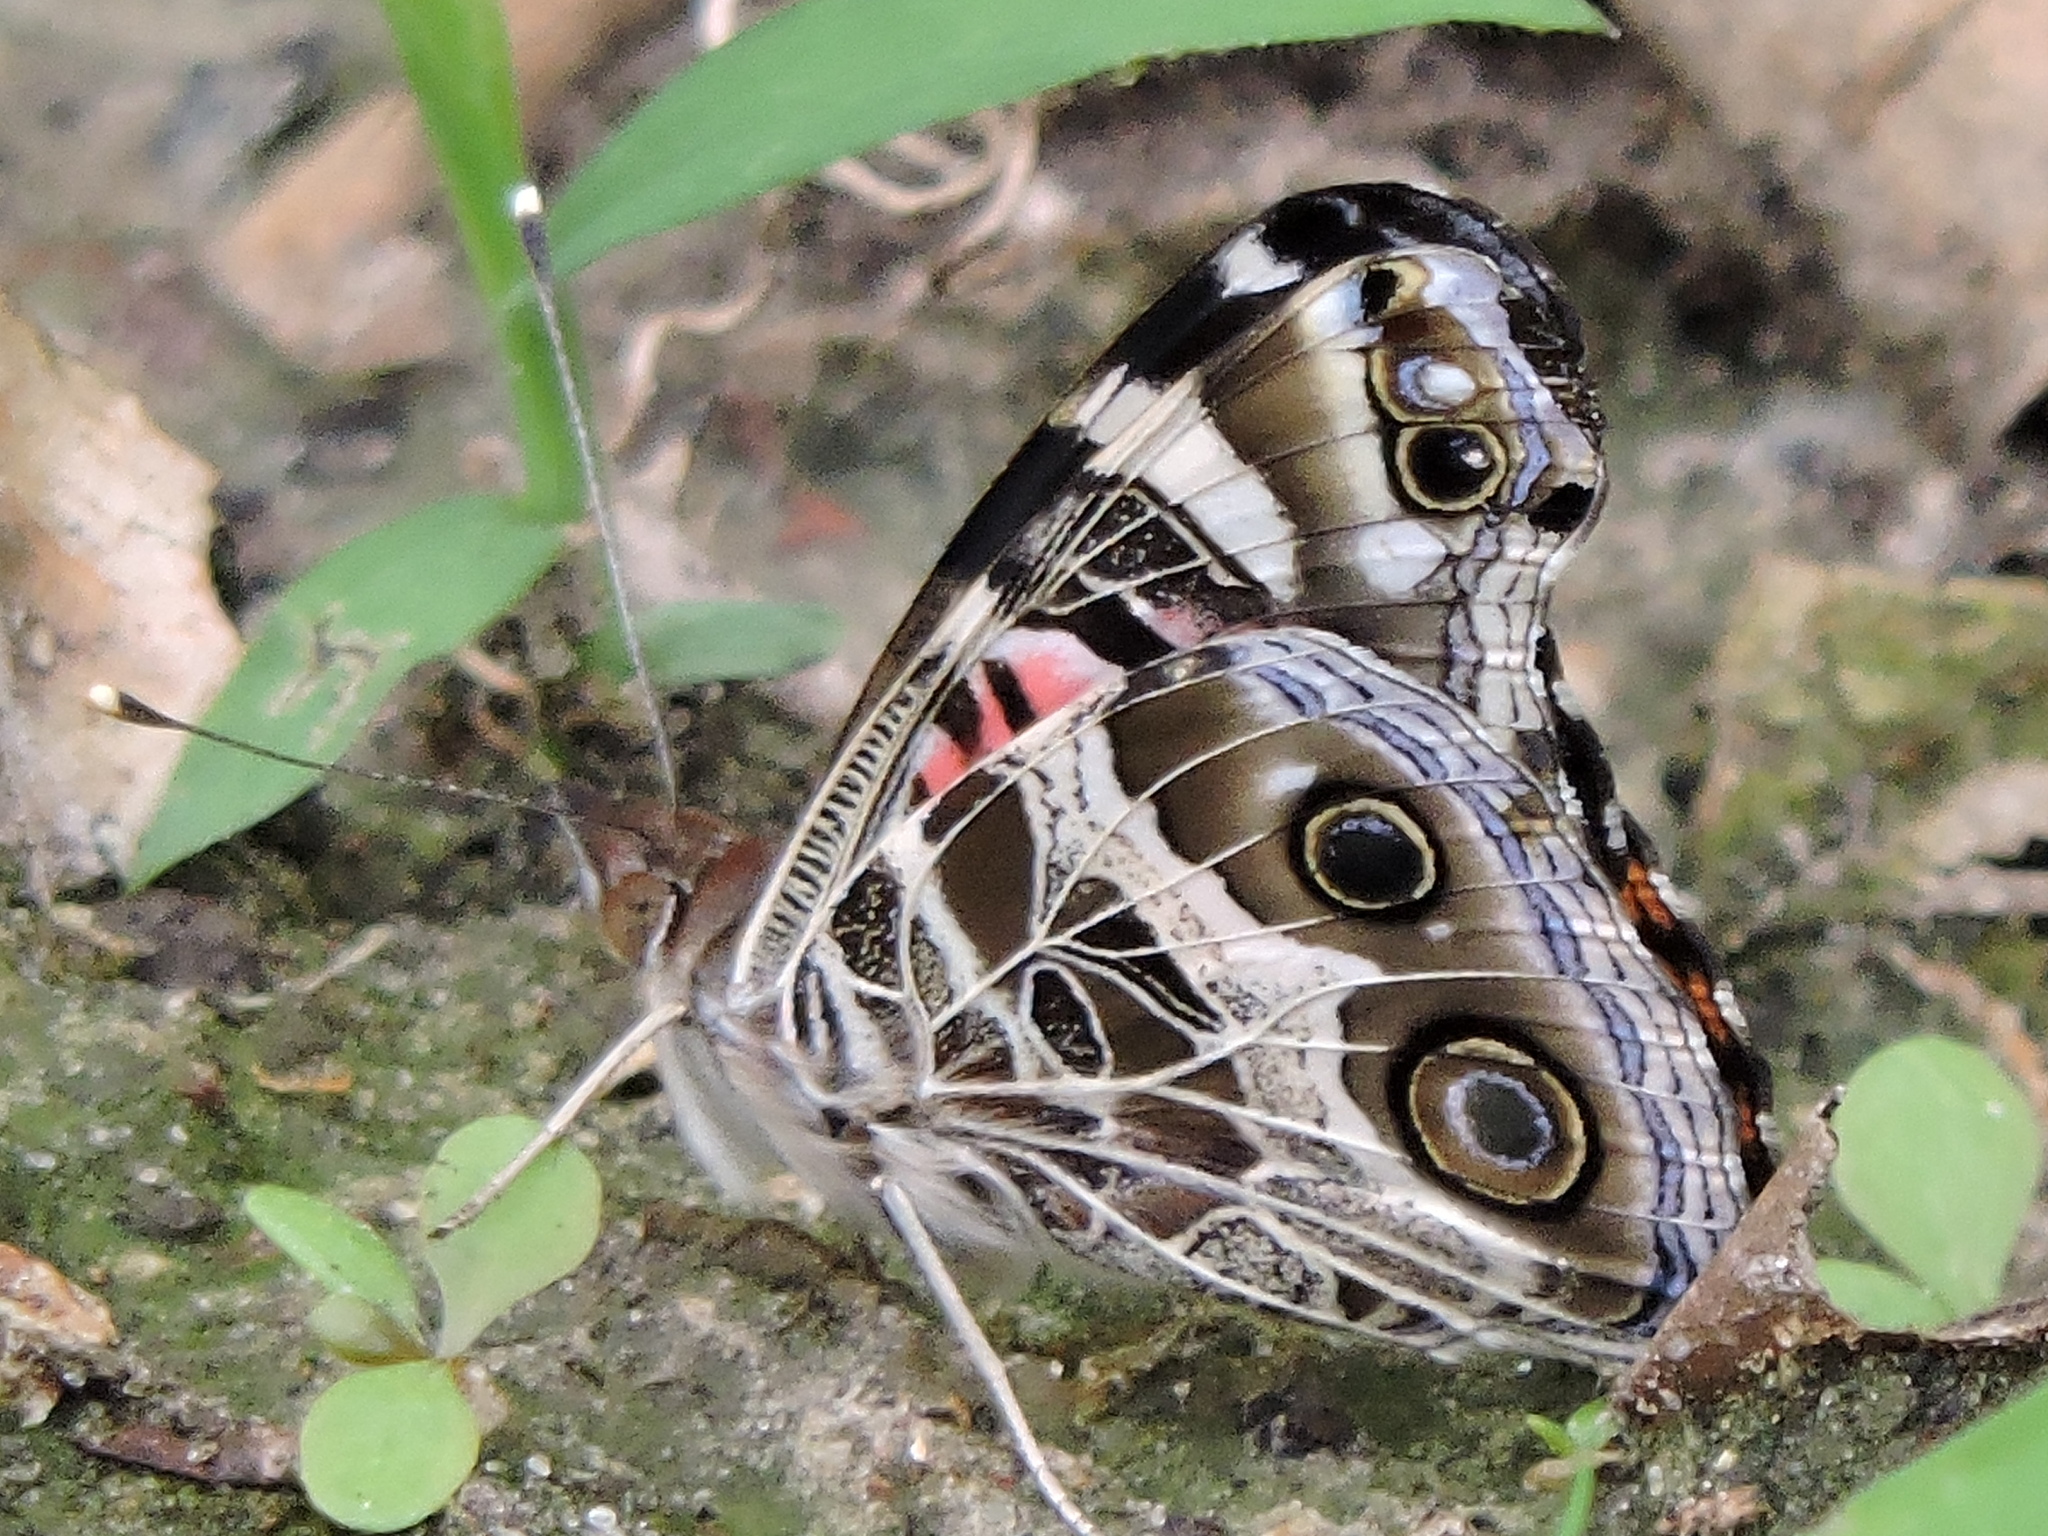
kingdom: Animalia
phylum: Arthropoda
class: Insecta
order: Lepidoptera
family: Nymphalidae
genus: Vanessa
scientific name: Vanessa virginiensis
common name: American lady
